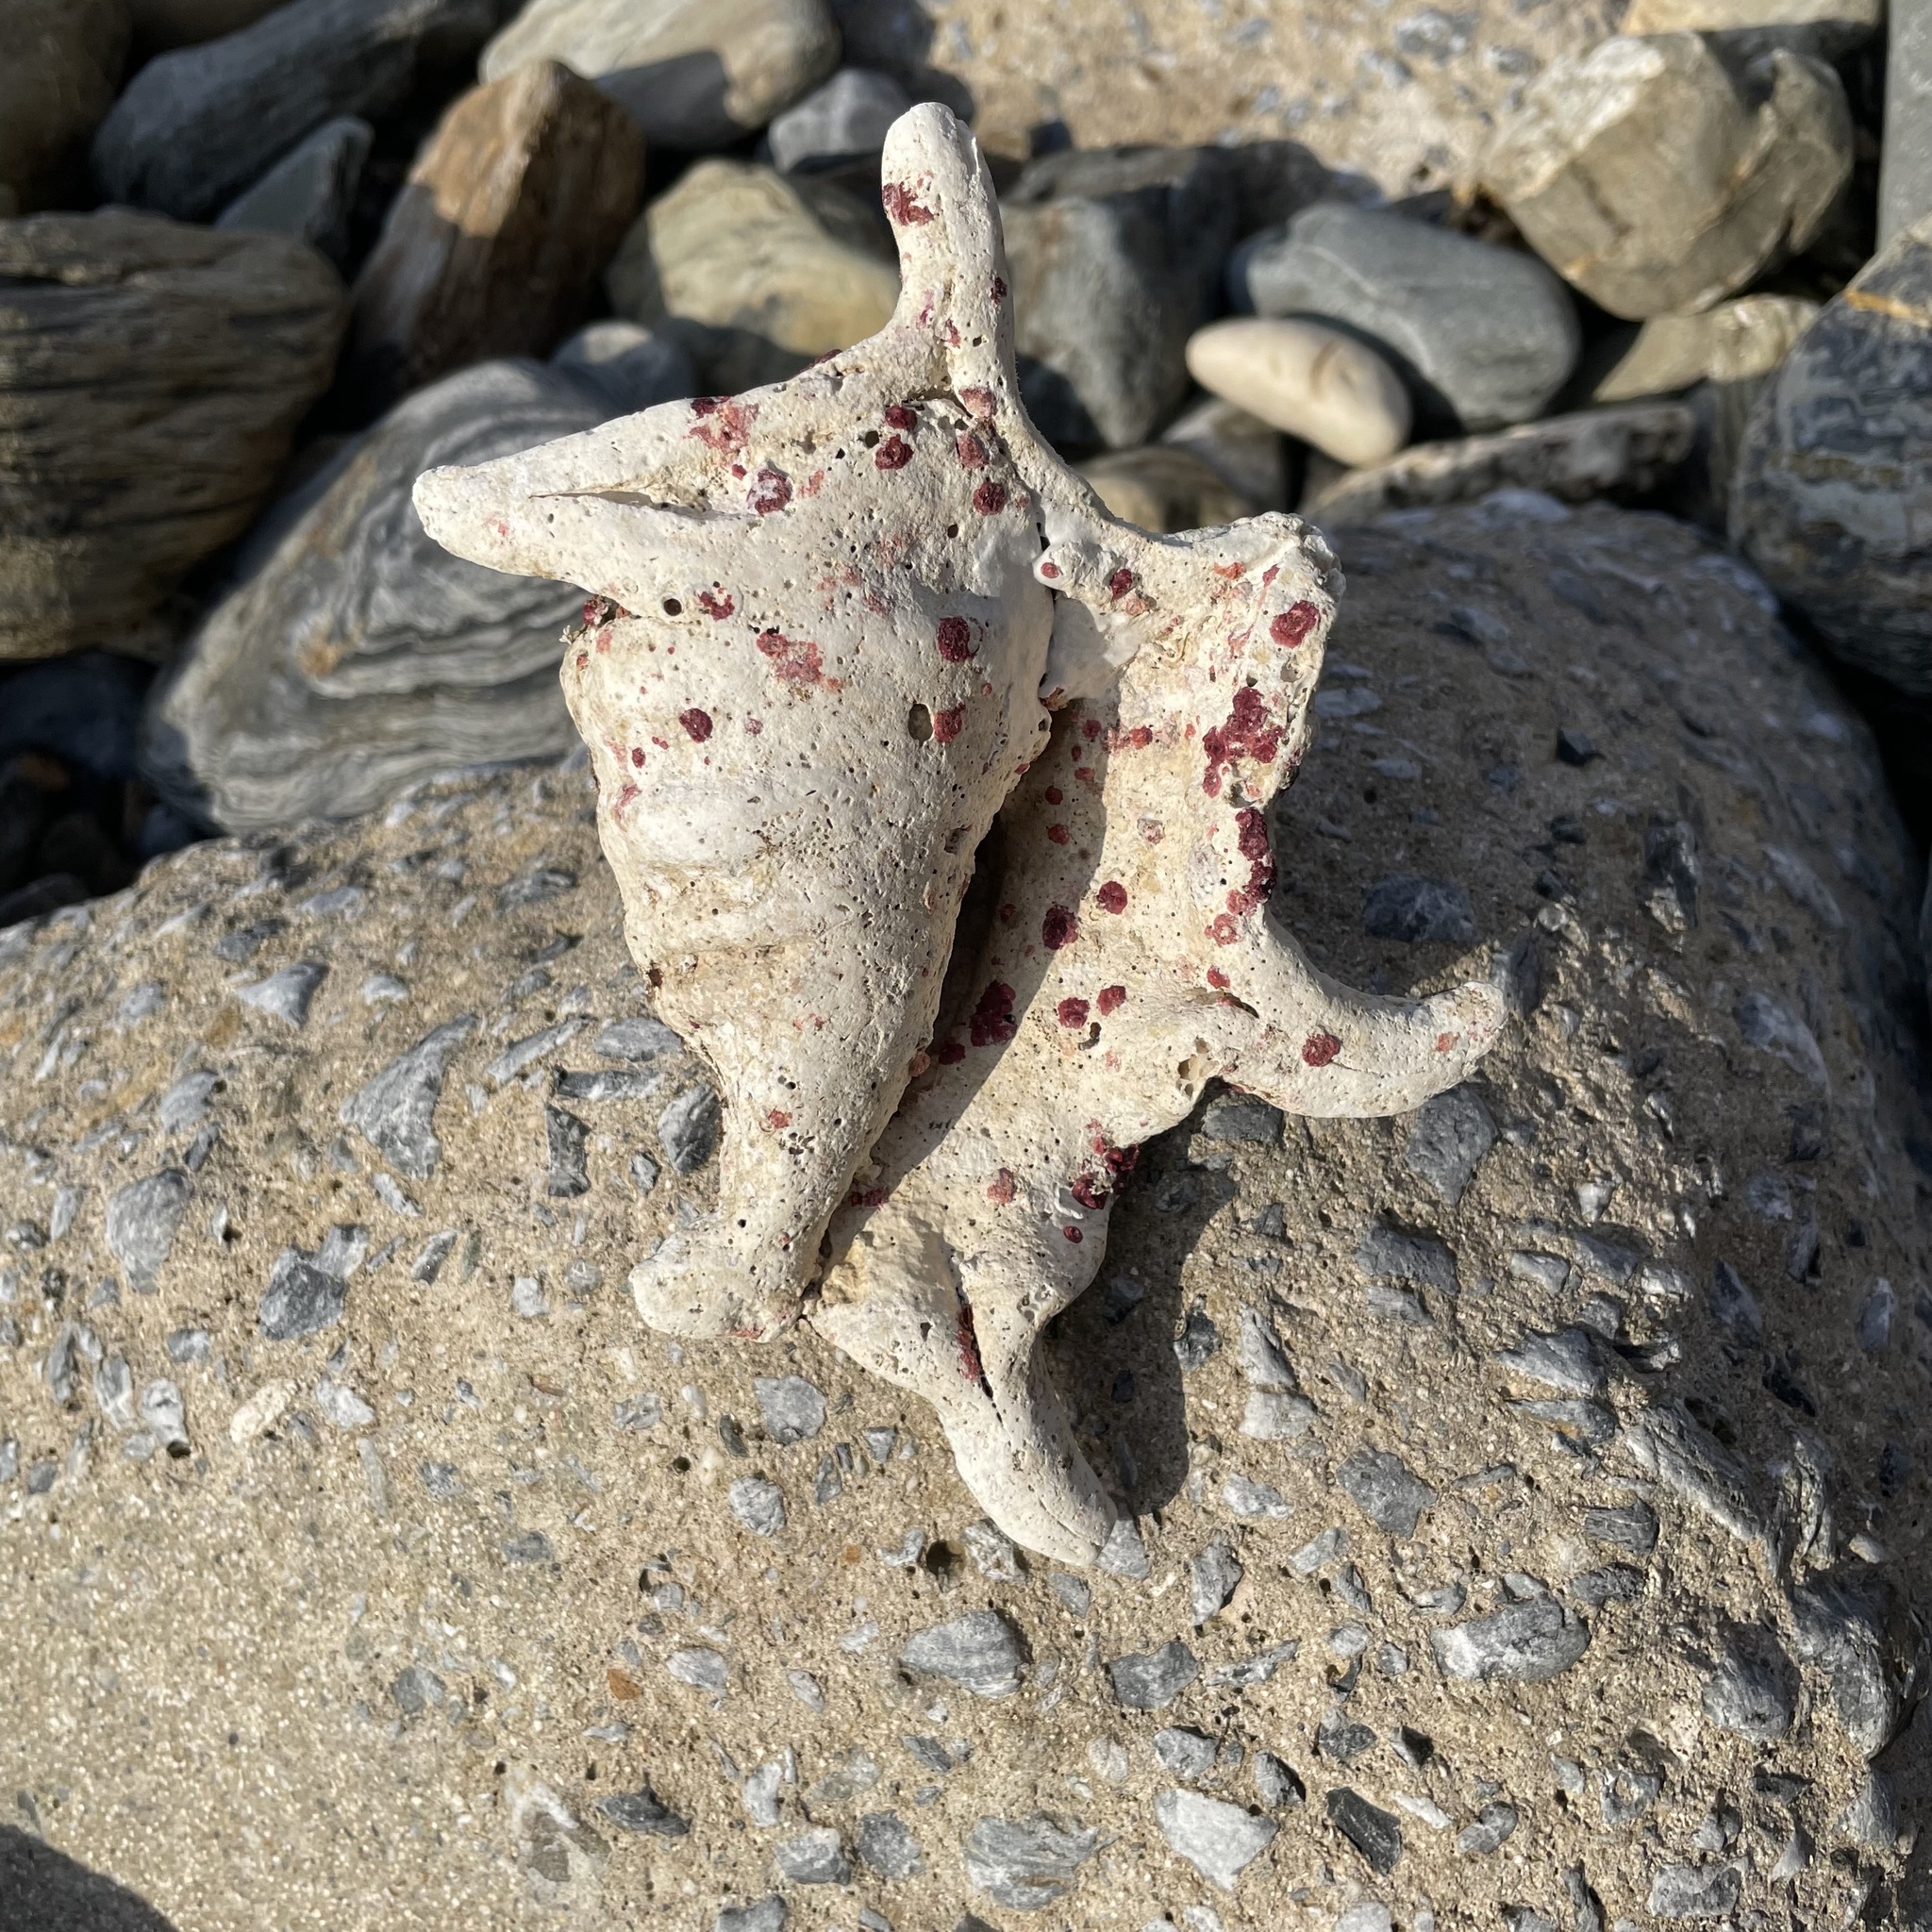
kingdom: Animalia
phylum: Mollusca
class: Gastropoda
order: Littorinimorpha
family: Strombidae
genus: Harpago
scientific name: Harpago chiragra
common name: Chiragra spider conch
